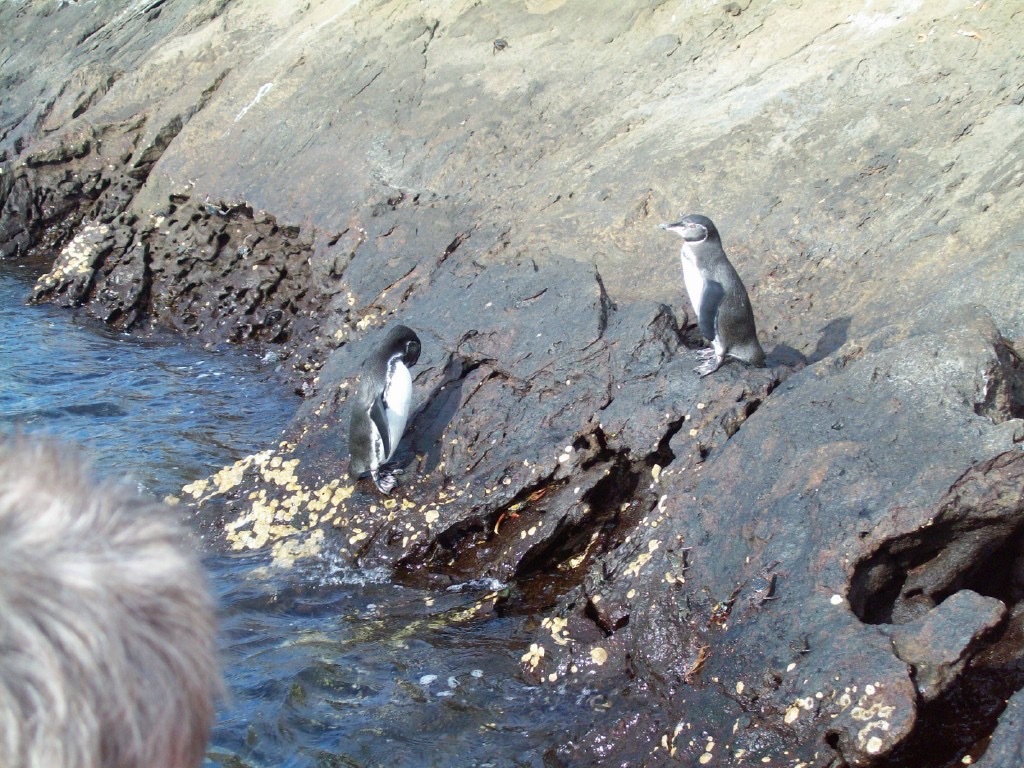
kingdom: Animalia
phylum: Chordata
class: Aves
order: Sphenisciformes
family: Spheniscidae
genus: Spheniscus
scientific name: Spheniscus mendiculus
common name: Galapagos penguin
